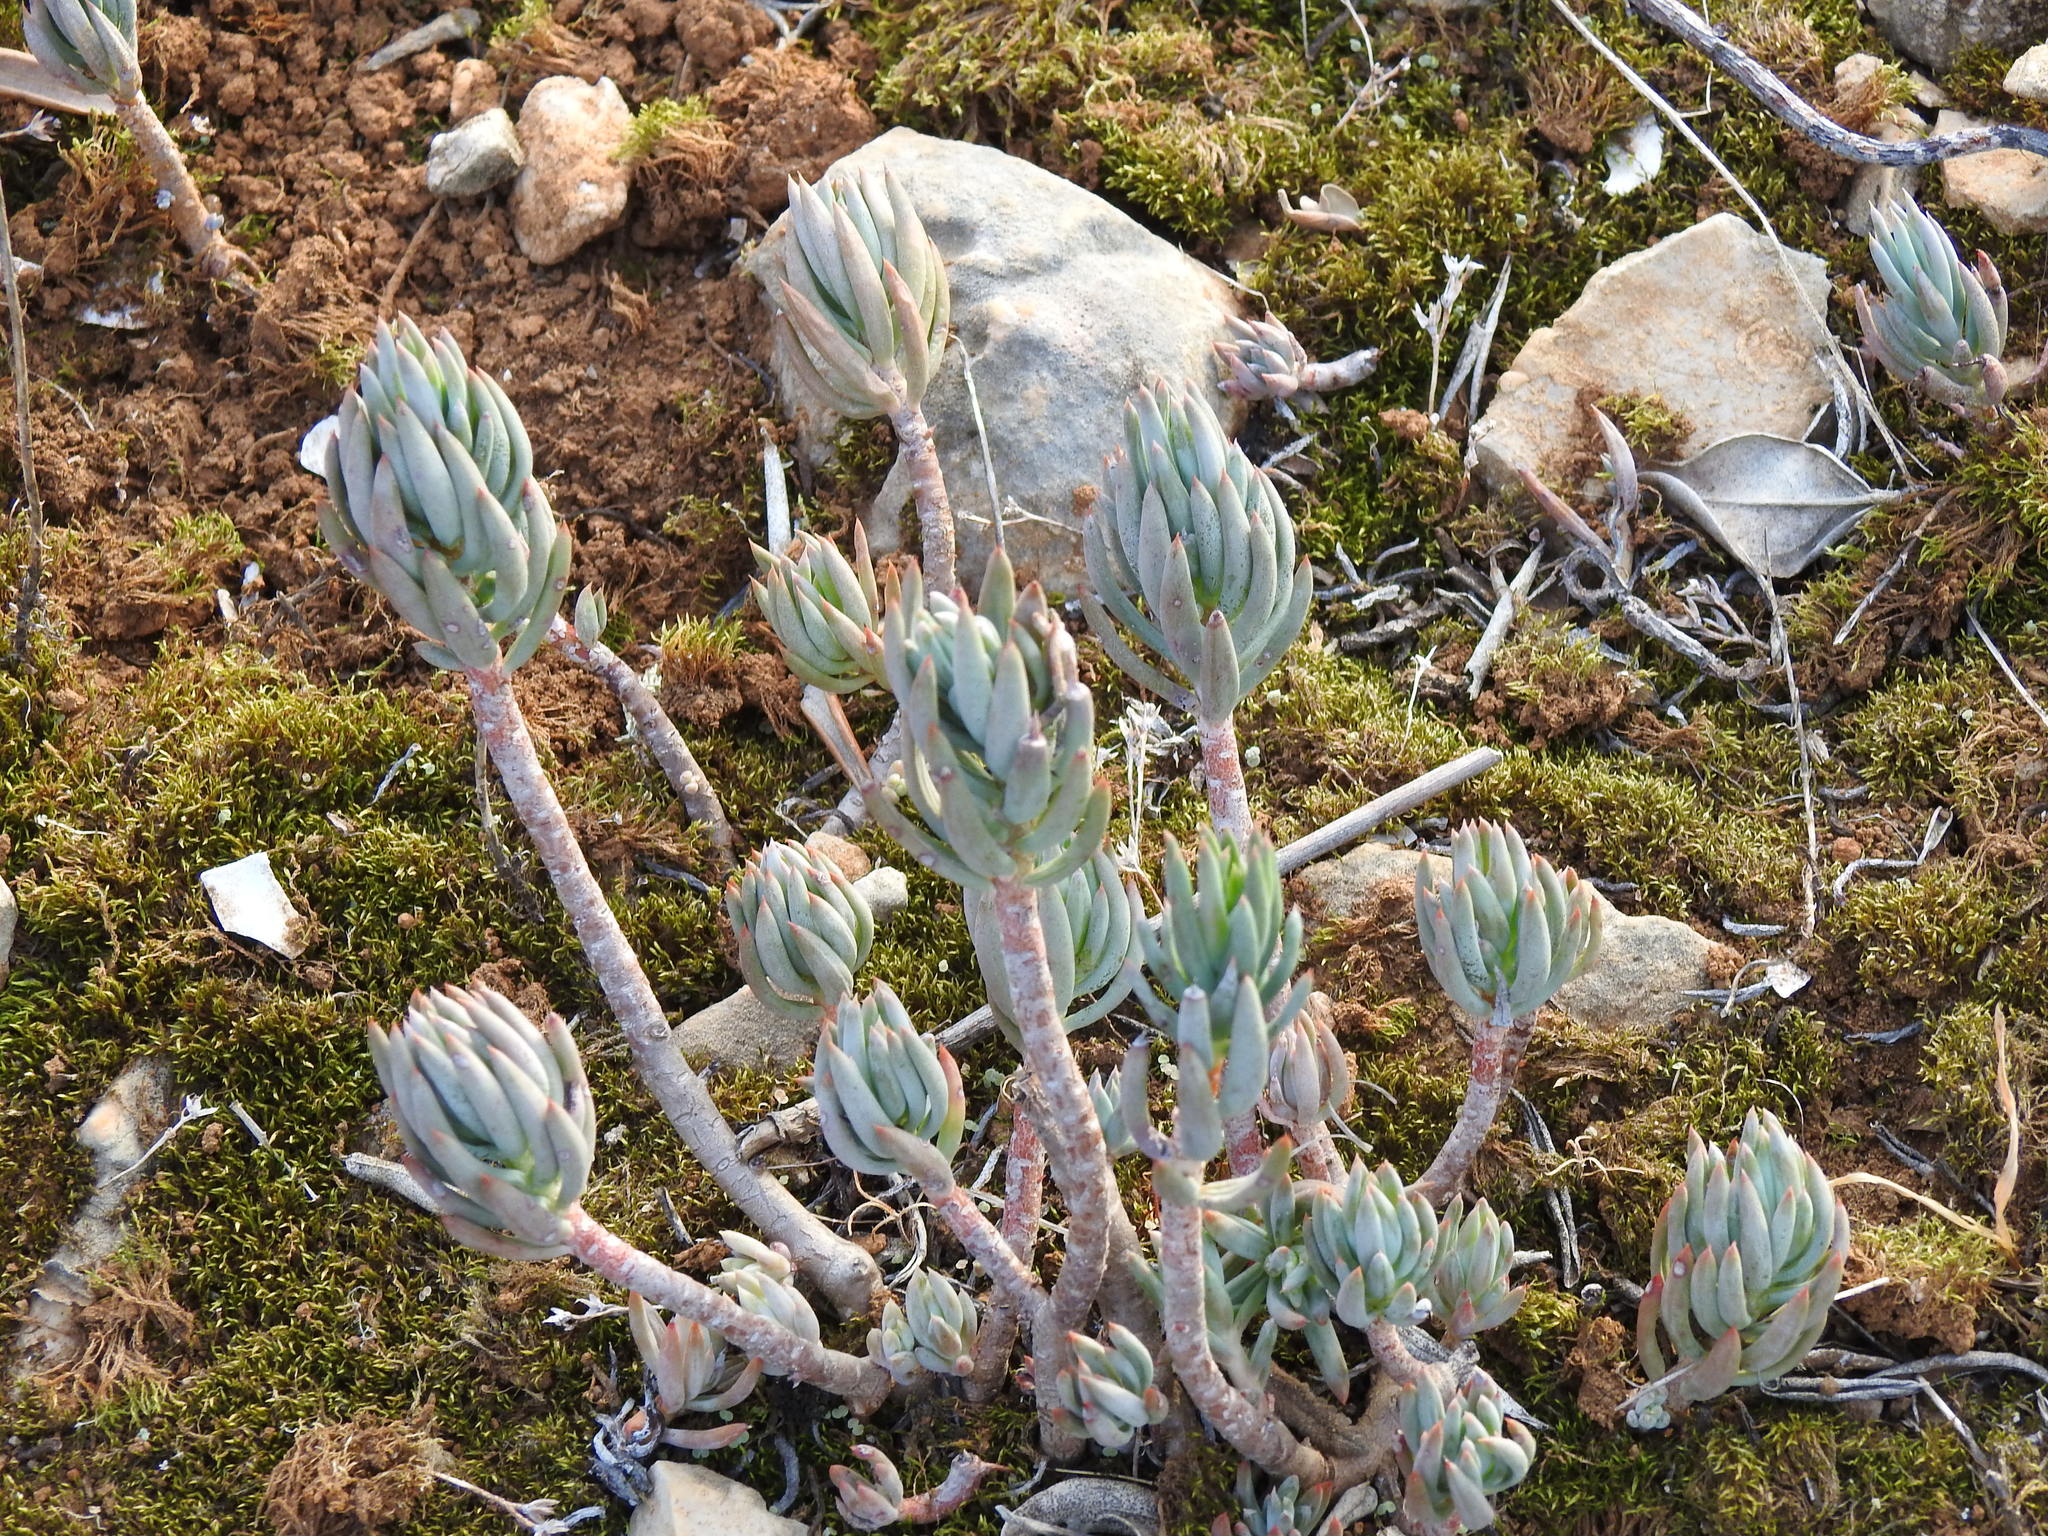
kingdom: Plantae
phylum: Tracheophyta
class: Magnoliopsida
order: Saxifragales
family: Crassulaceae
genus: Petrosedum
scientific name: Petrosedum sediforme
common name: Pale stonecrop
